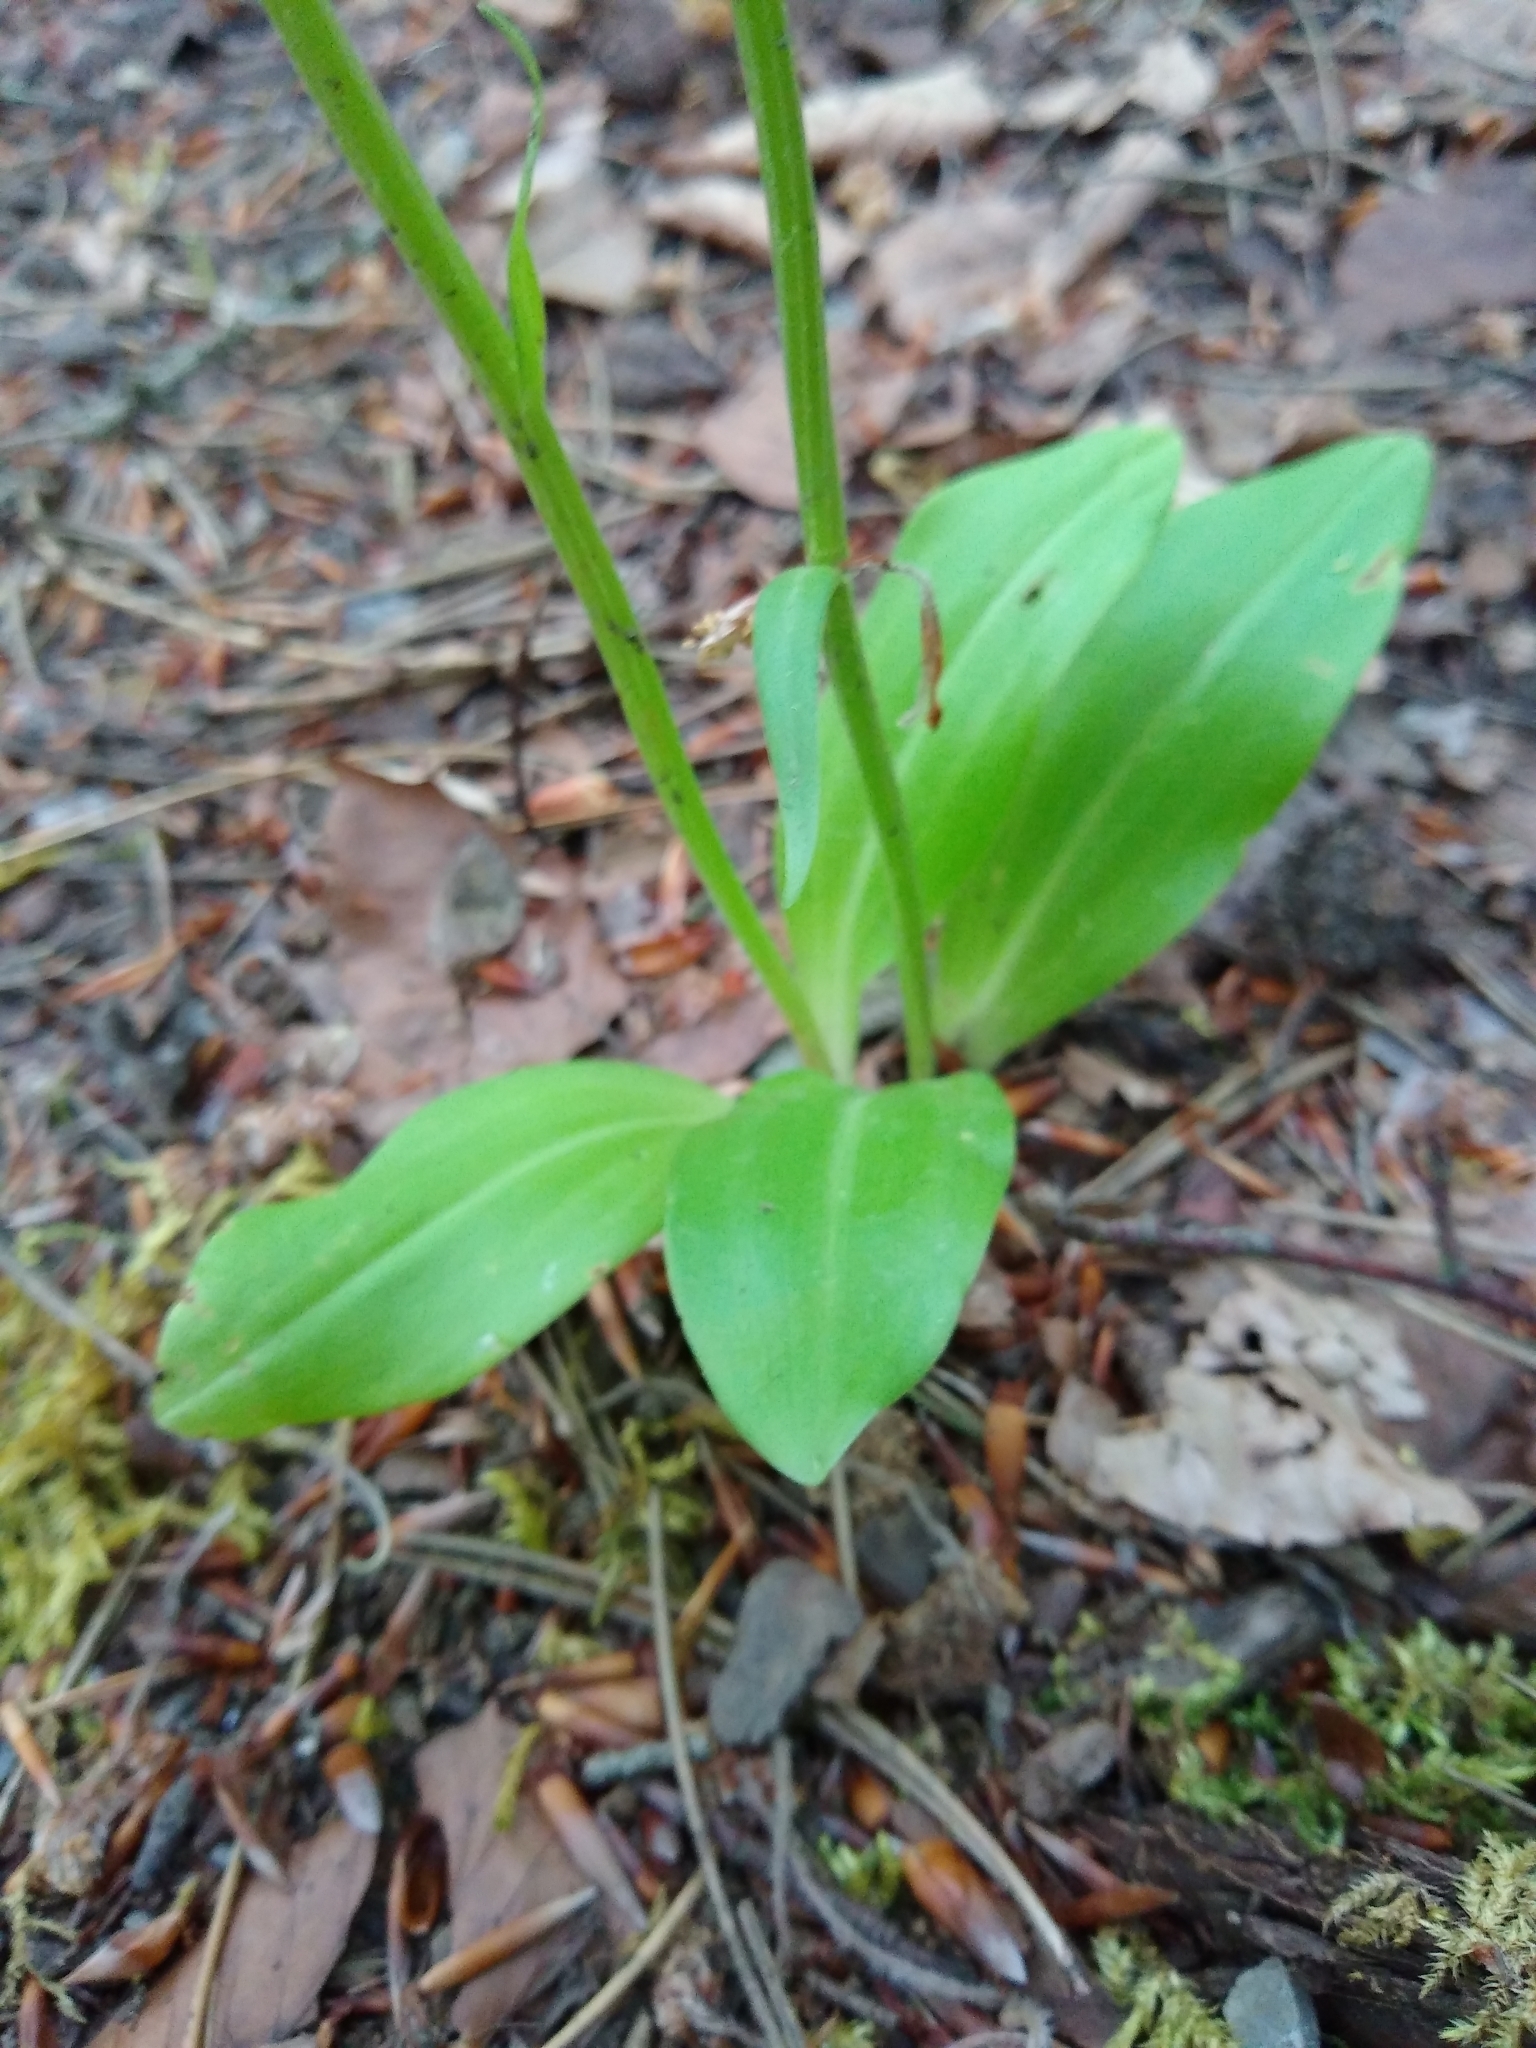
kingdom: Plantae
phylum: Tracheophyta
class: Liliopsida
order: Asparagales
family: Orchidaceae
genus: Platanthera
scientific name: Platanthera chlorantha
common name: Greater butterfly-orchid
